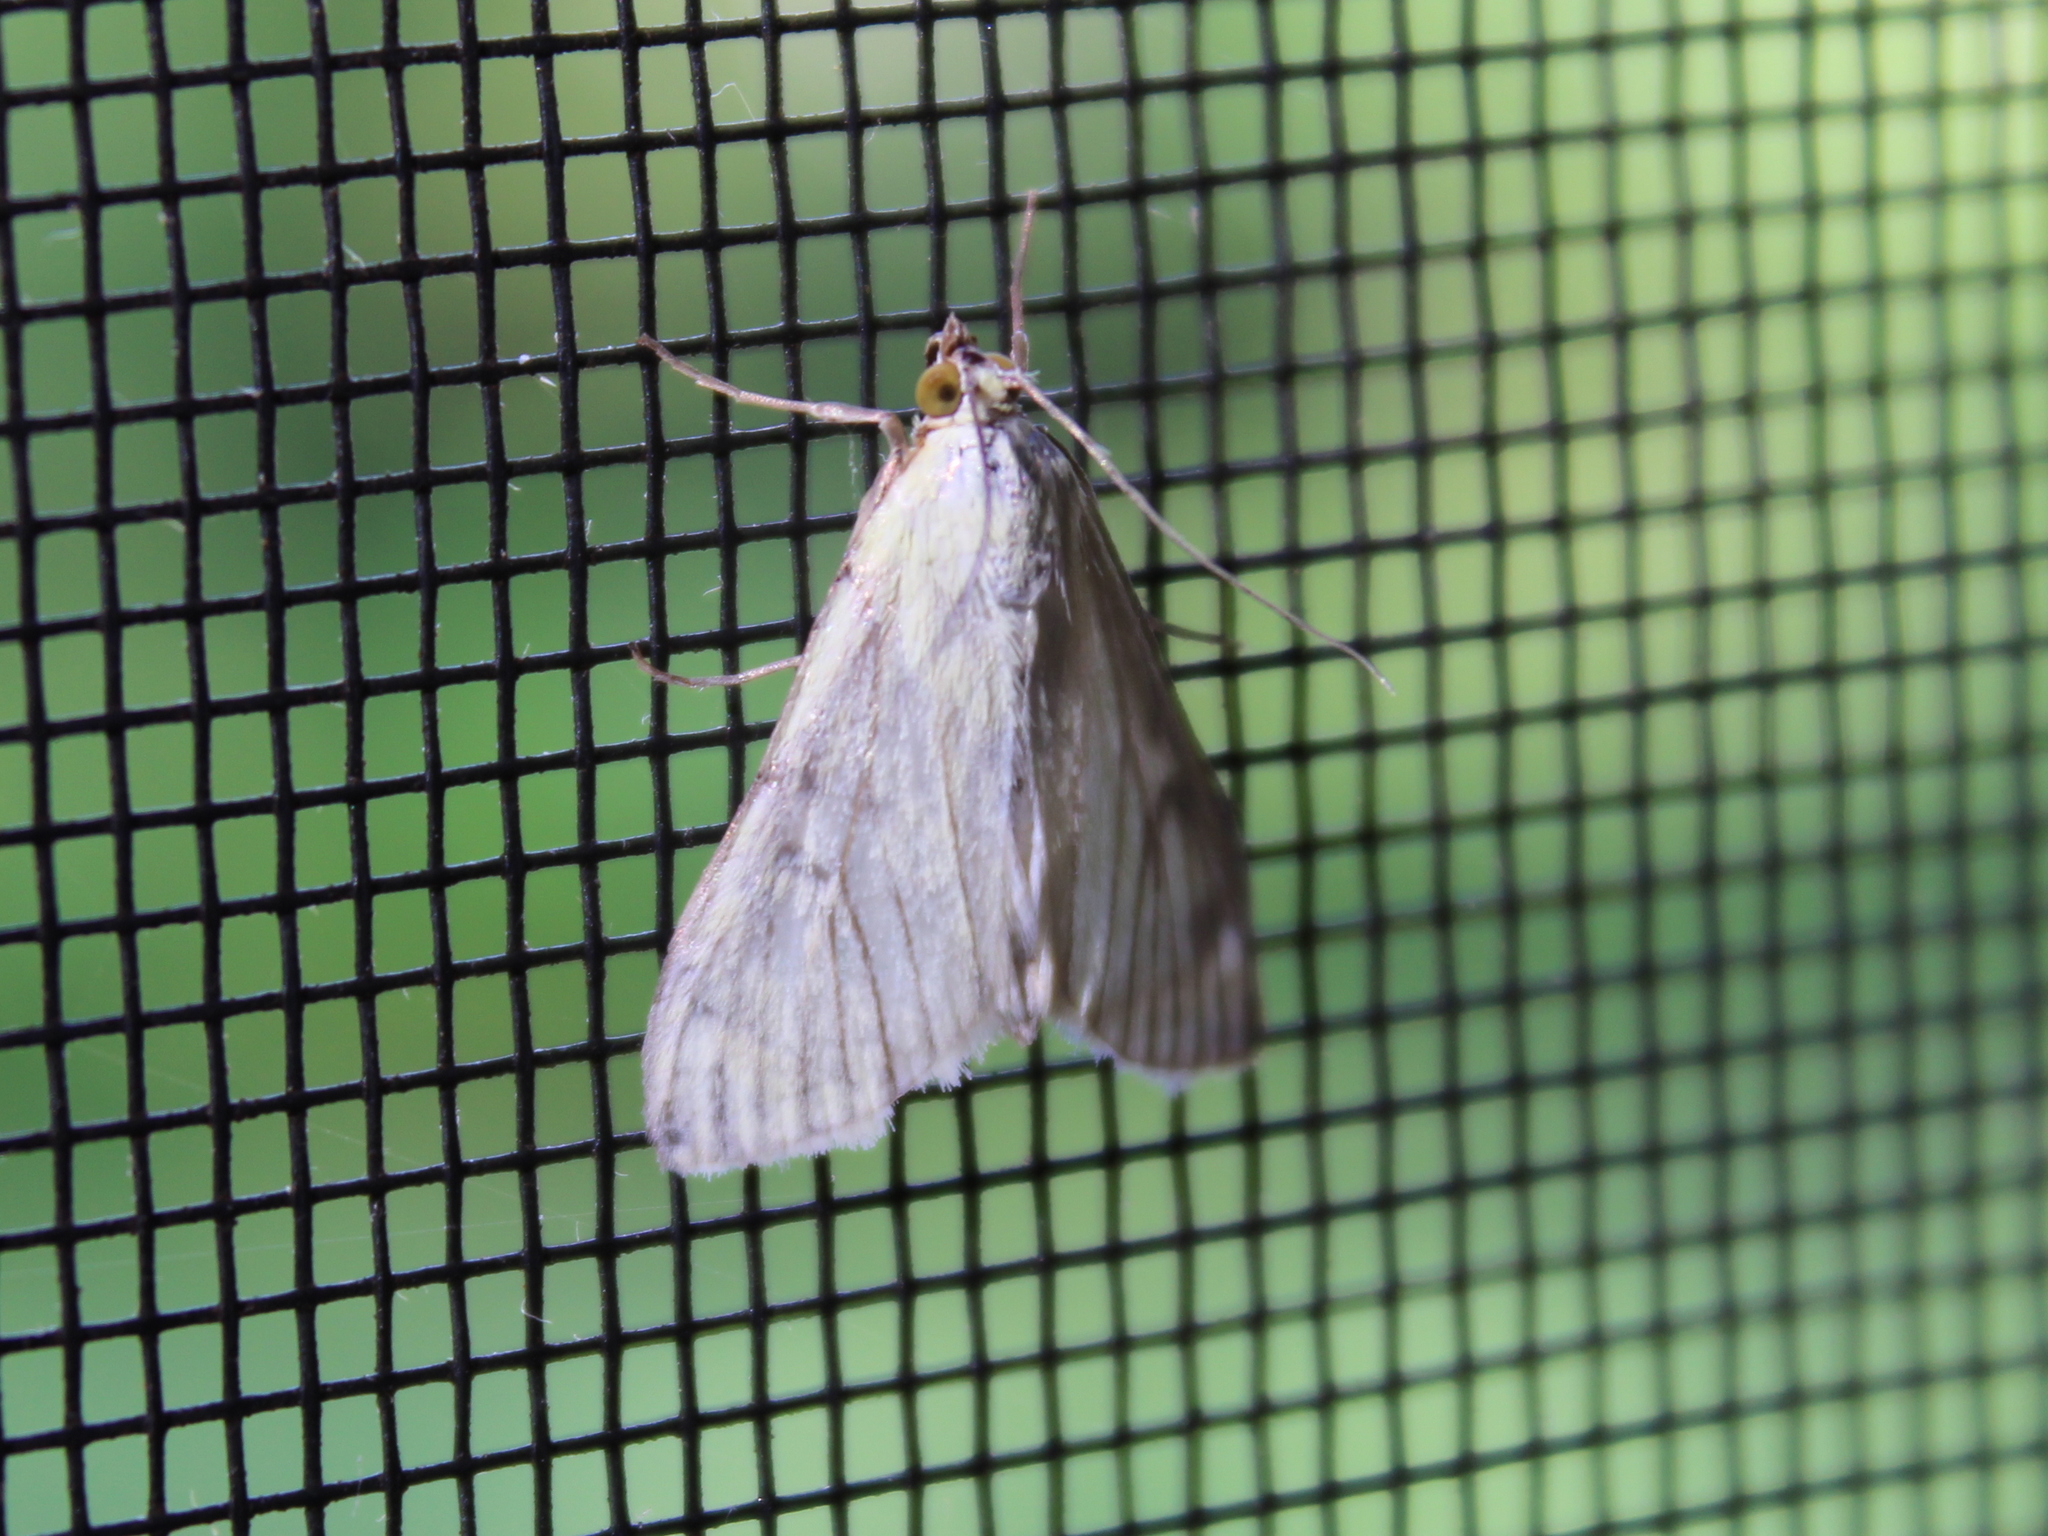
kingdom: Animalia
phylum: Arthropoda
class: Insecta
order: Lepidoptera
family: Crambidae
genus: Sitochroa
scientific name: Sitochroa palealis
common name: Greenish-yellow sitochroa moth
